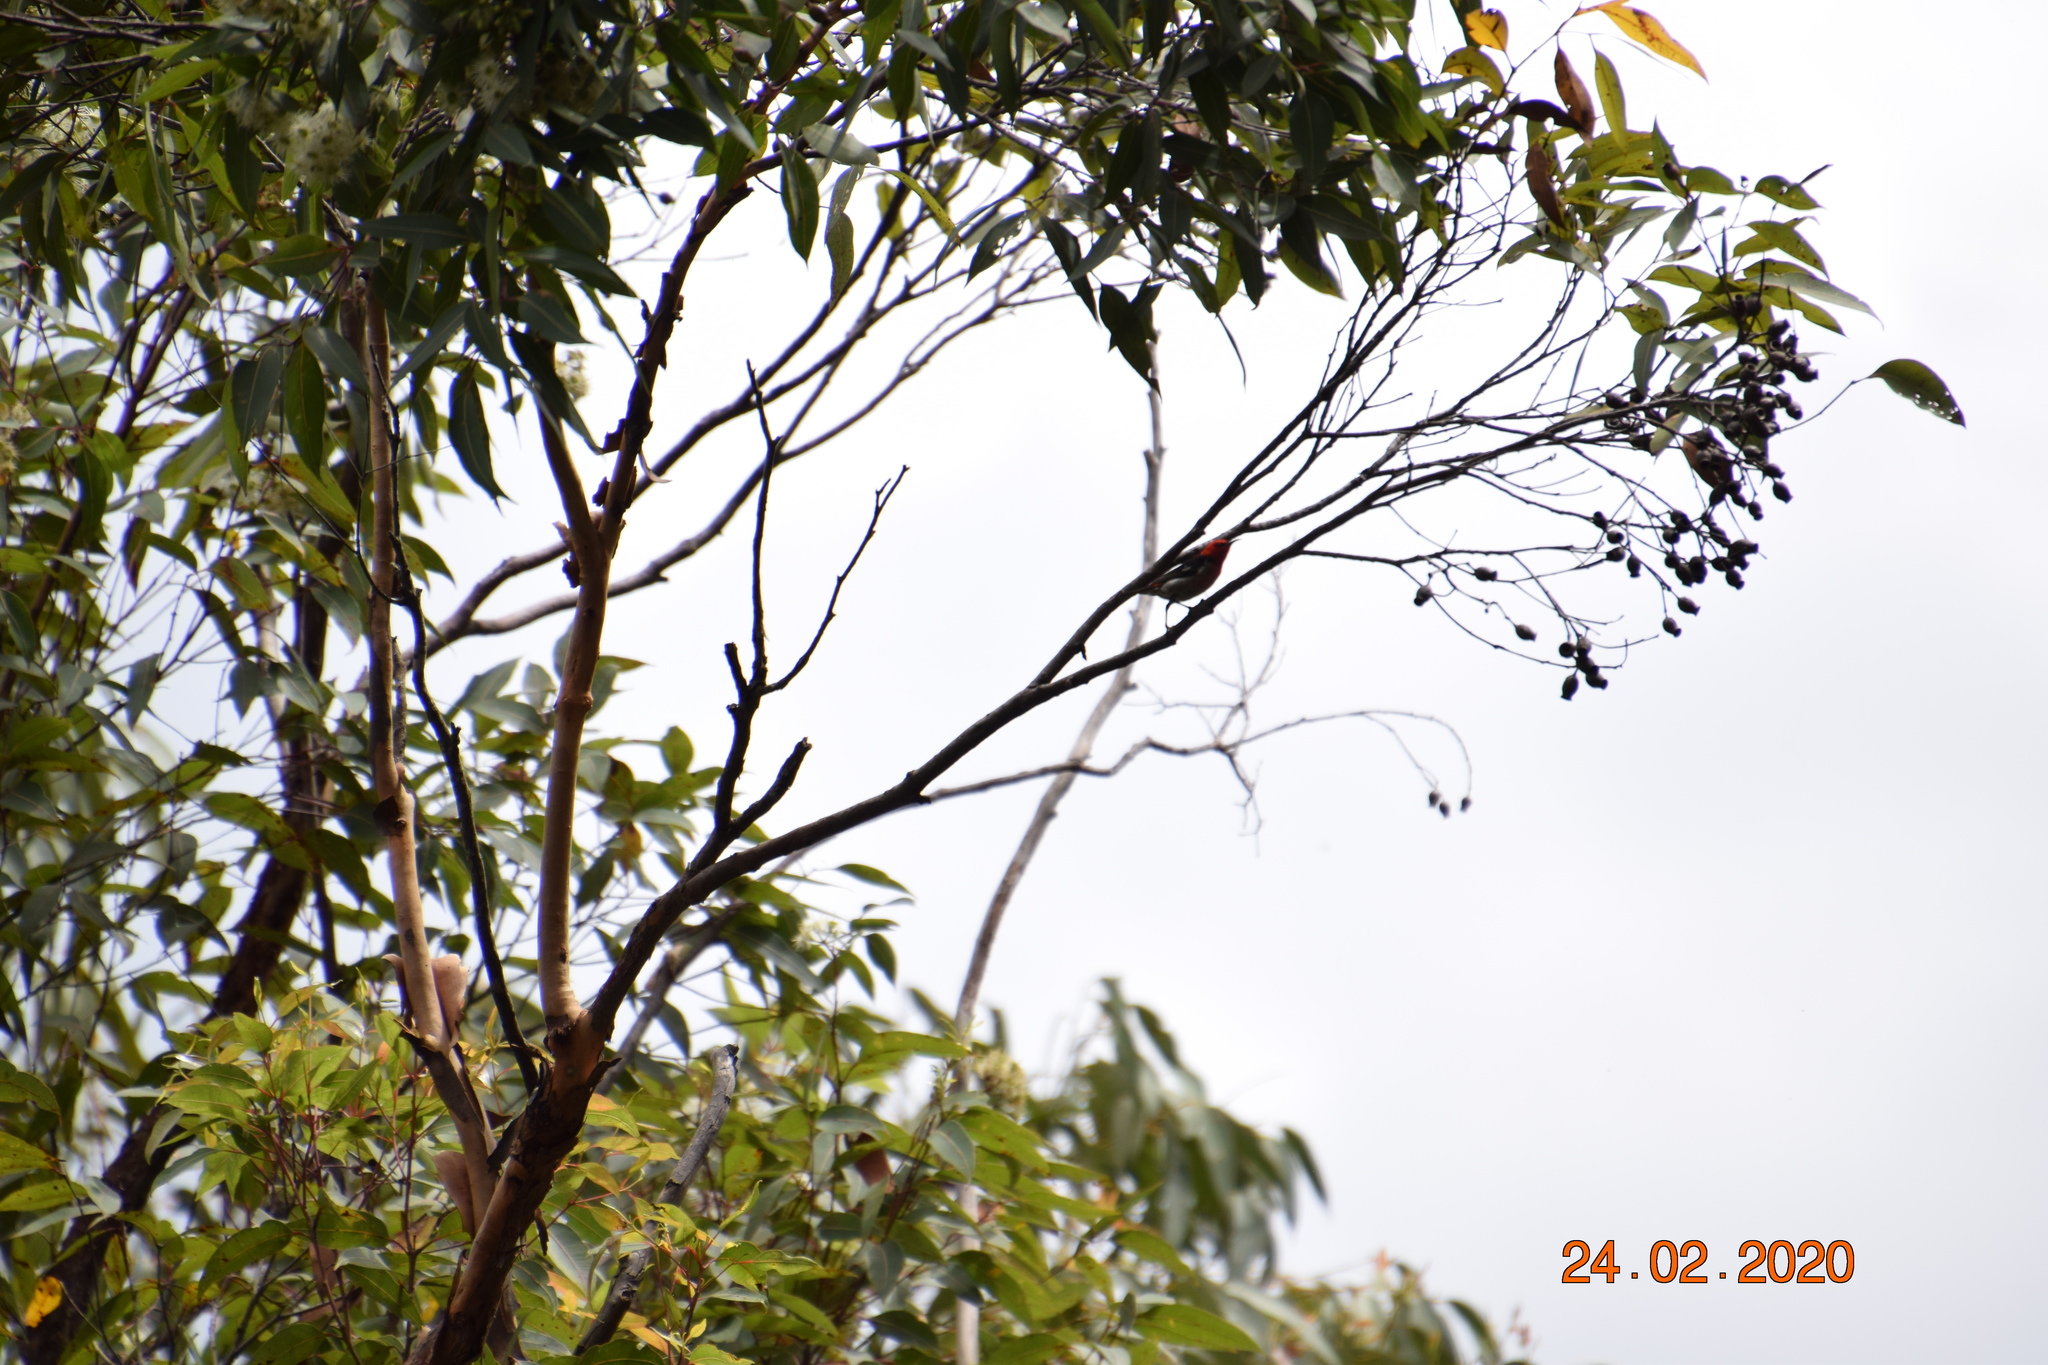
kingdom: Animalia
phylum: Chordata
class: Aves
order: Passeriformes
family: Meliphagidae
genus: Myzomela
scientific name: Myzomela sanguinolenta
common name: Scarlet myzomela
